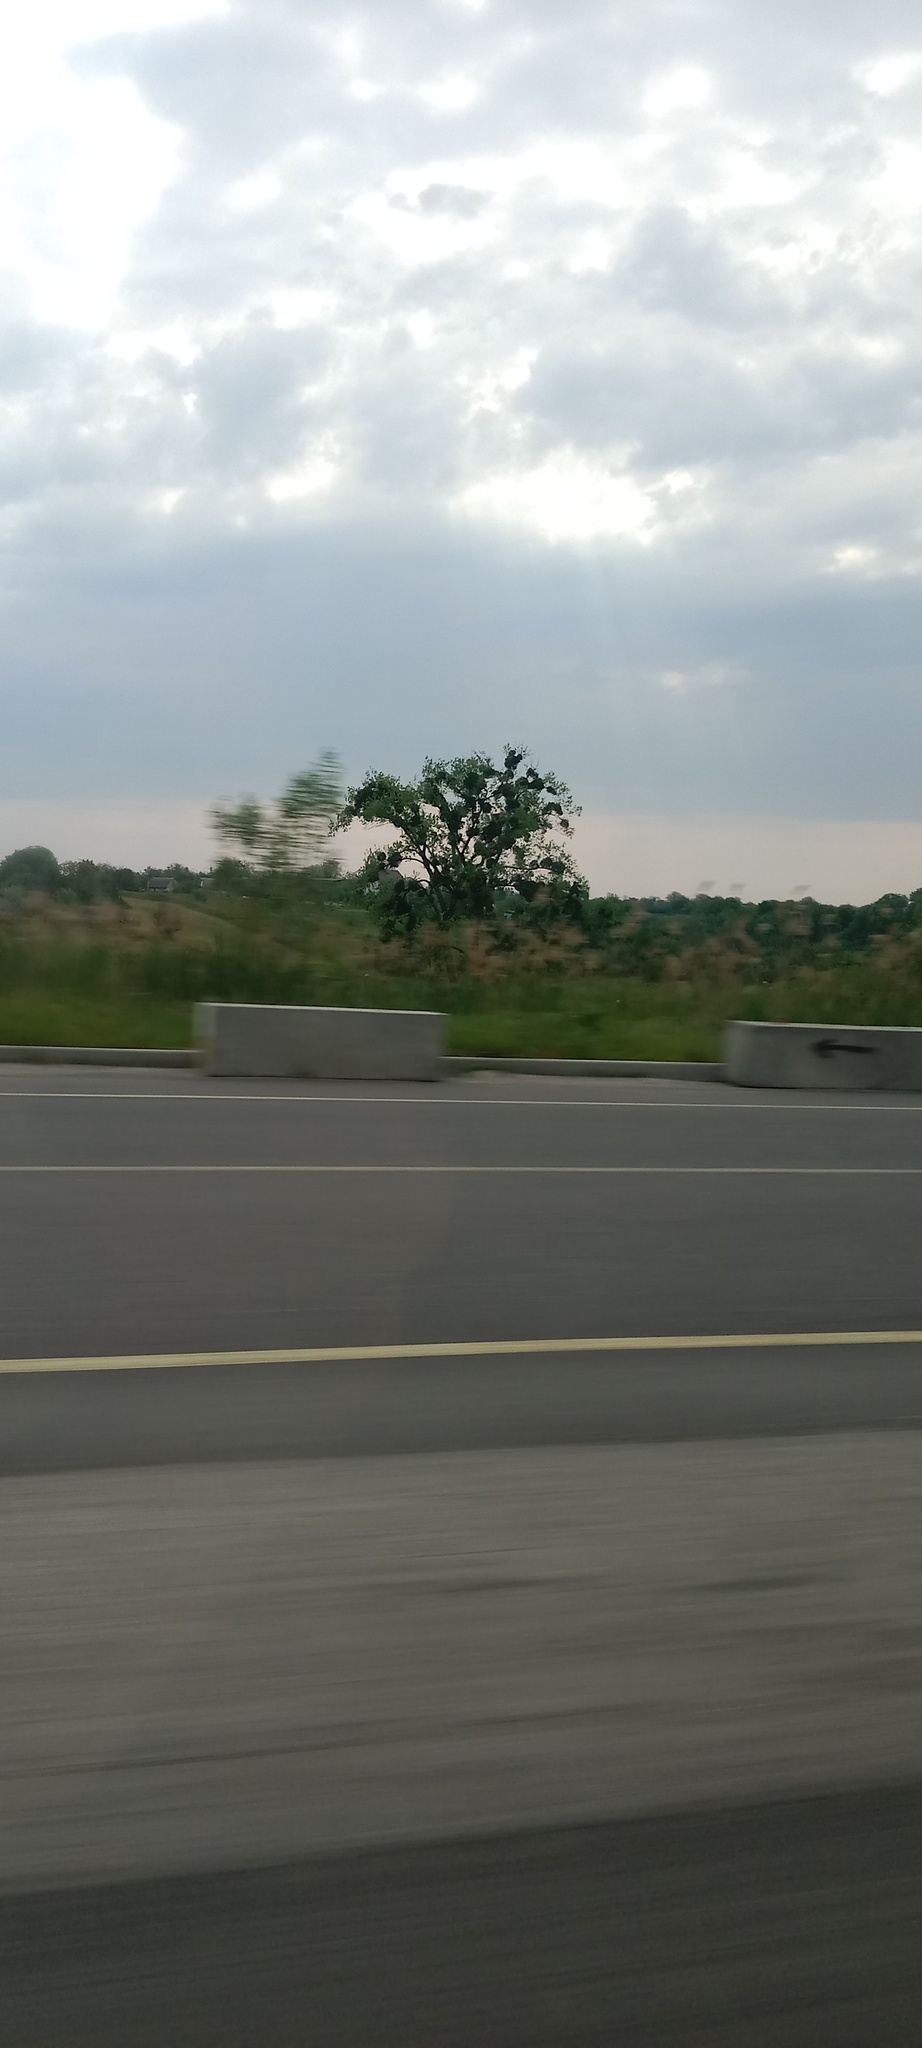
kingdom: Plantae
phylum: Tracheophyta
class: Magnoliopsida
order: Santalales
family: Viscaceae
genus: Viscum
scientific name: Viscum album
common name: Mistletoe
